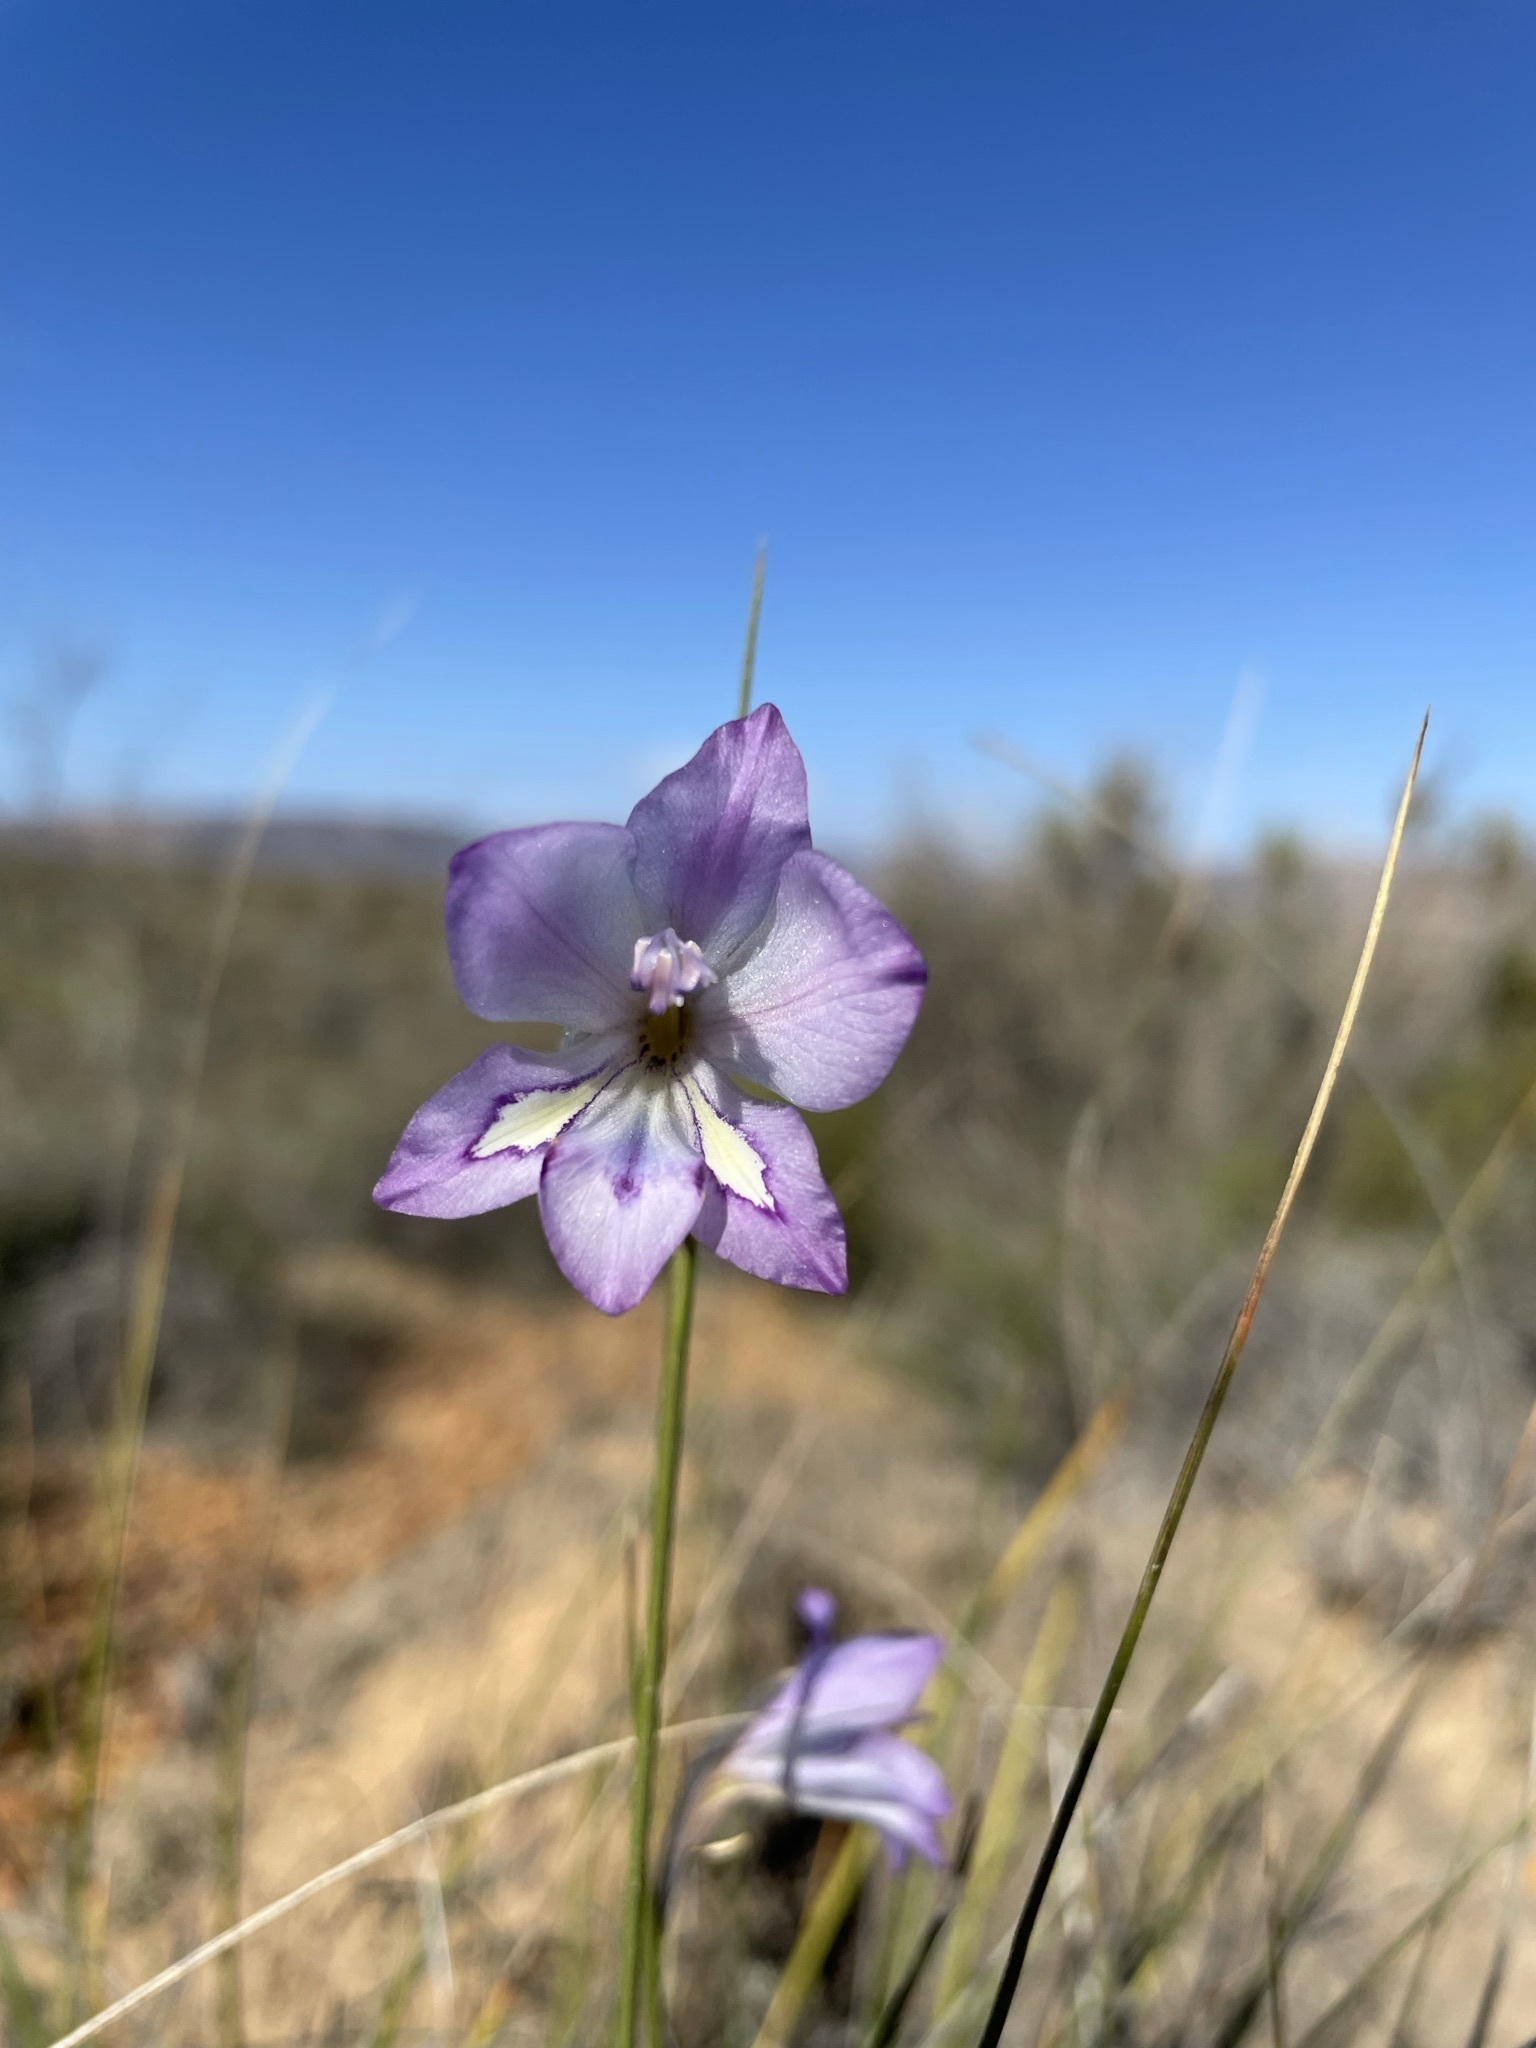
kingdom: Plantae
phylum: Tracheophyta
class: Liliopsida
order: Asparagales
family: Iridaceae
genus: Gladiolus
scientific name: Gladiolus inflatus
